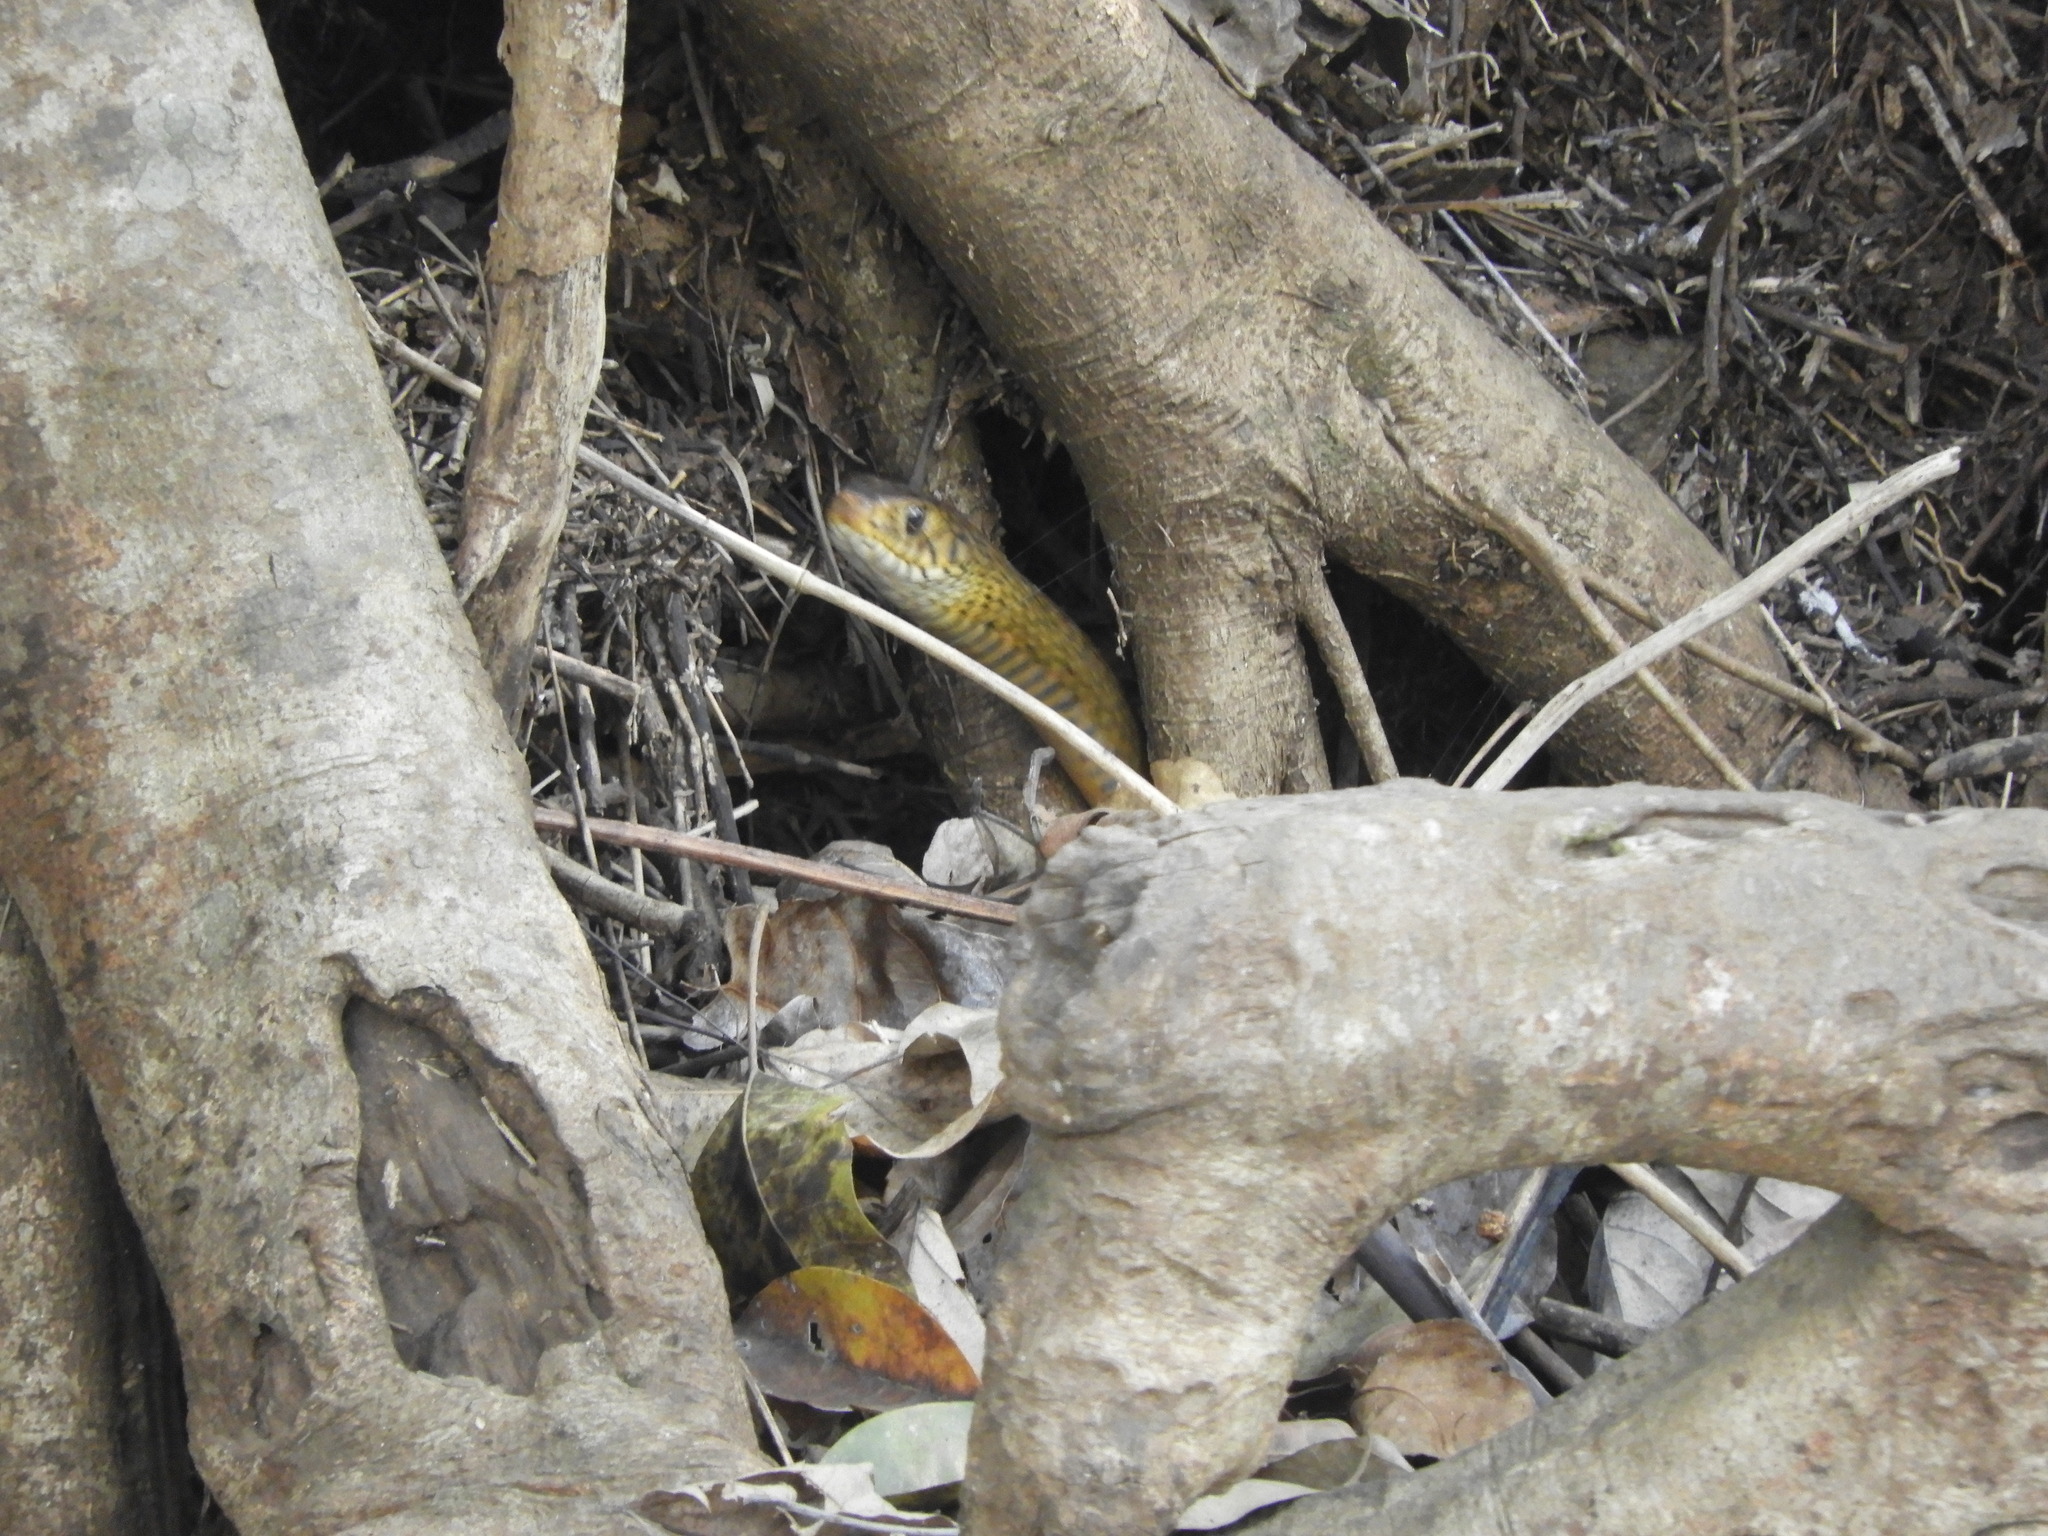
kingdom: Animalia
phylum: Chordata
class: Squamata
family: Colubridae
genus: Ptyas
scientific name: Ptyas mucosa
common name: Oriental ratsnake
